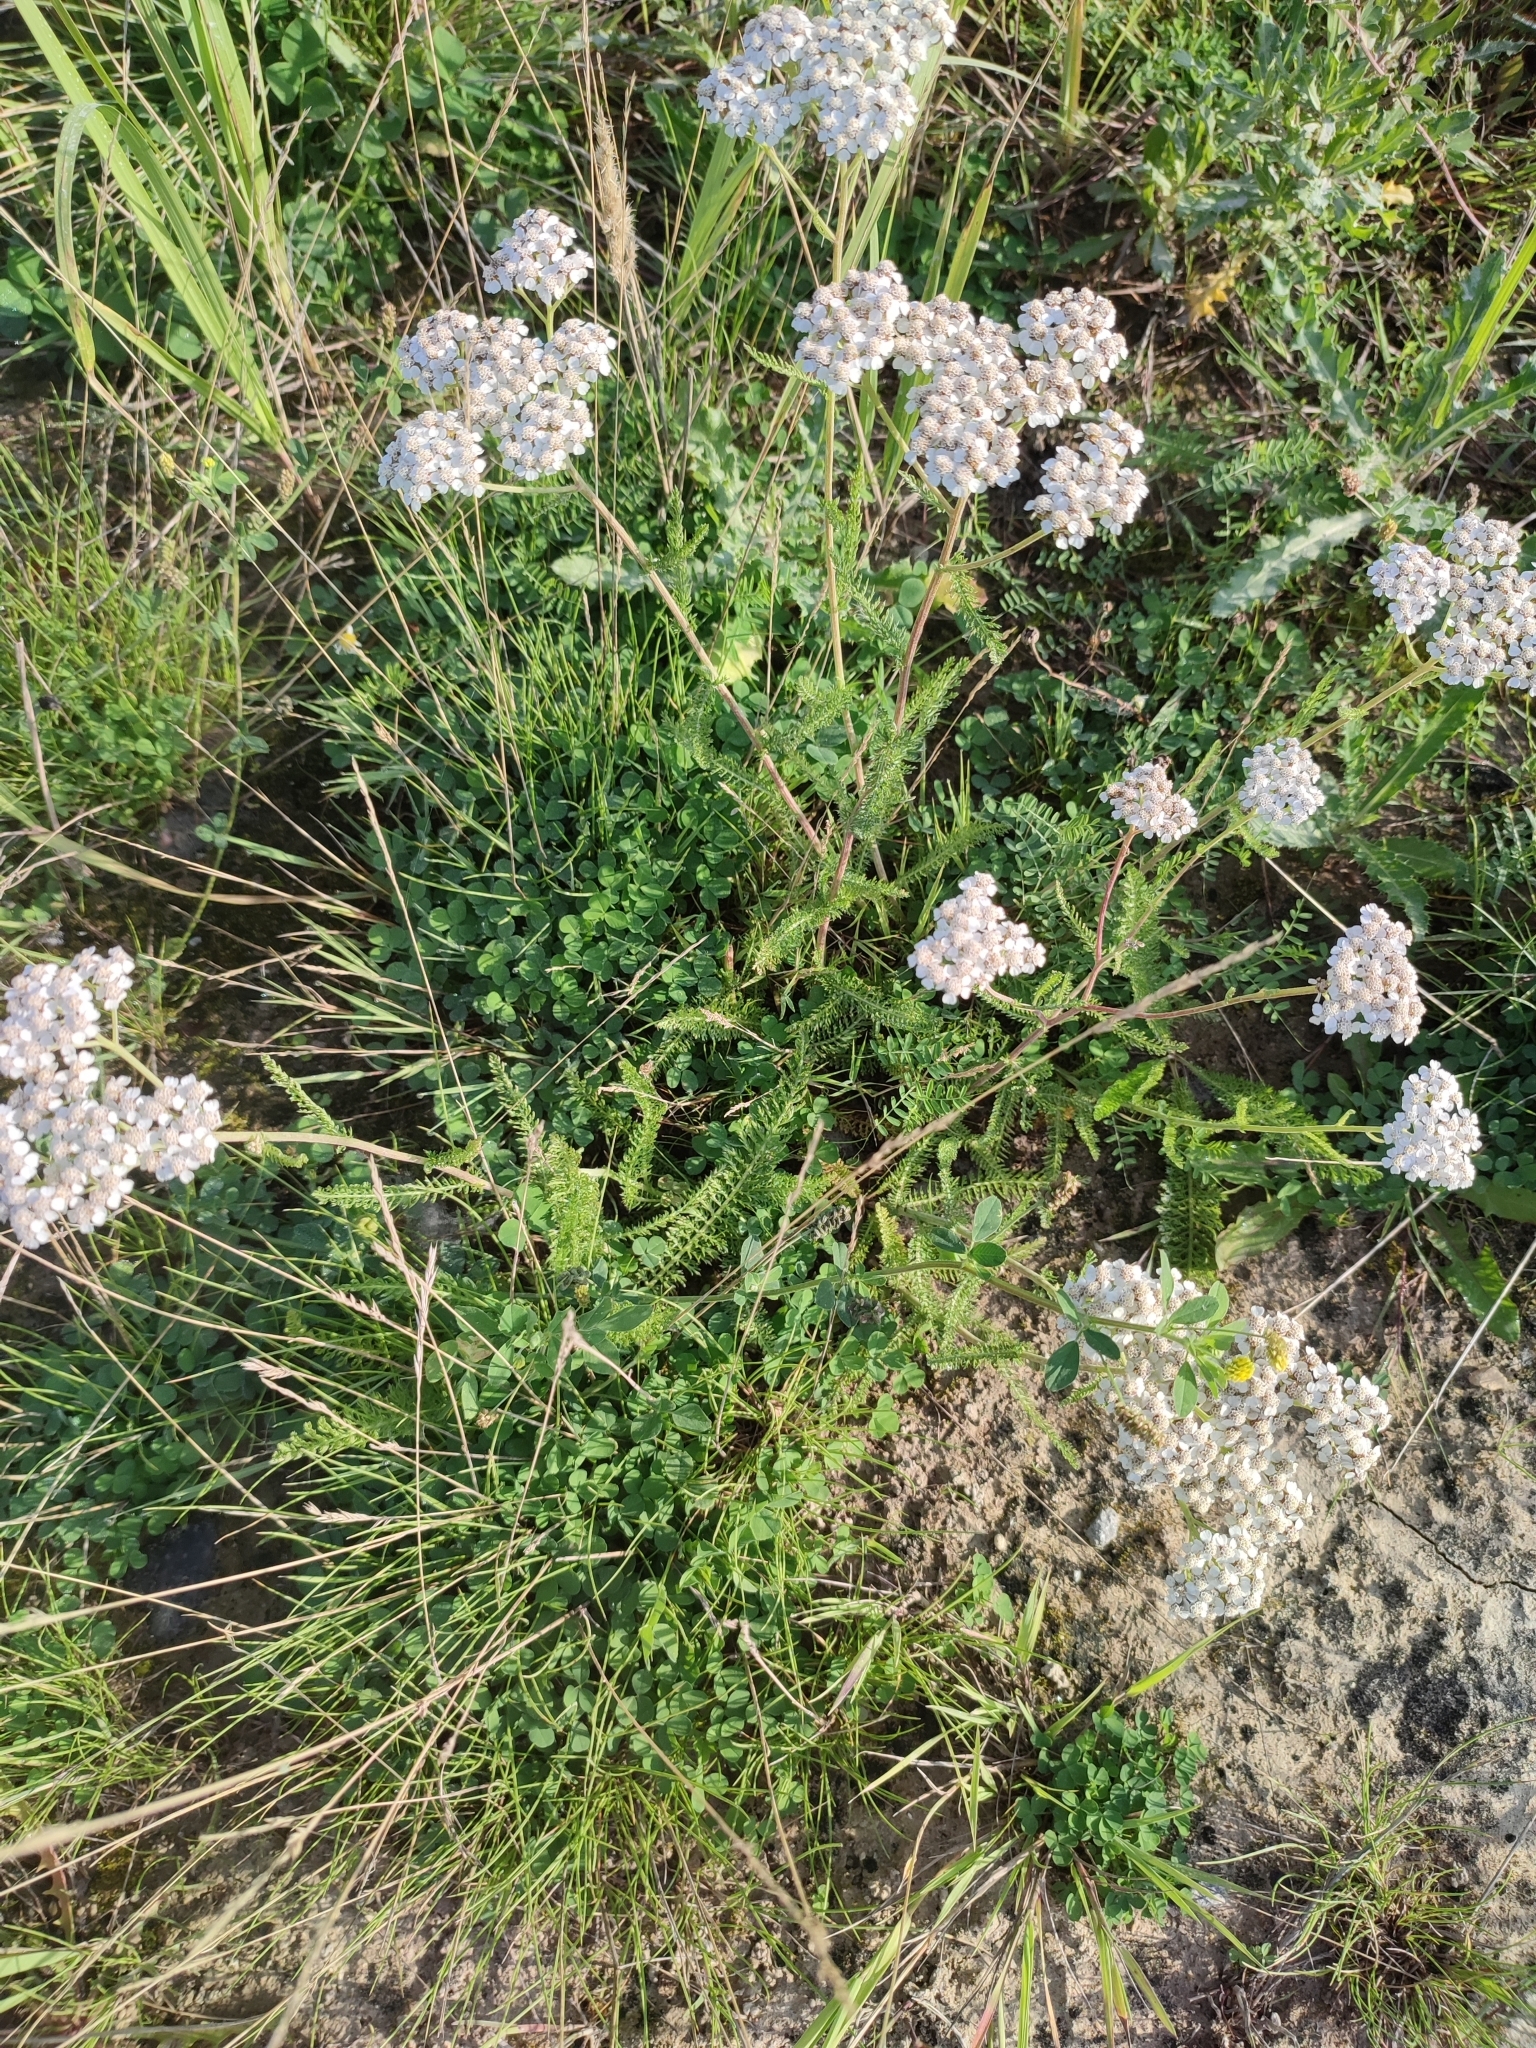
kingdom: Plantae
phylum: Tracheophyta
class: Magnoliopsida
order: Asterales
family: Asteraceae
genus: Achillea
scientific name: Achillea millefolium
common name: Yarrow
